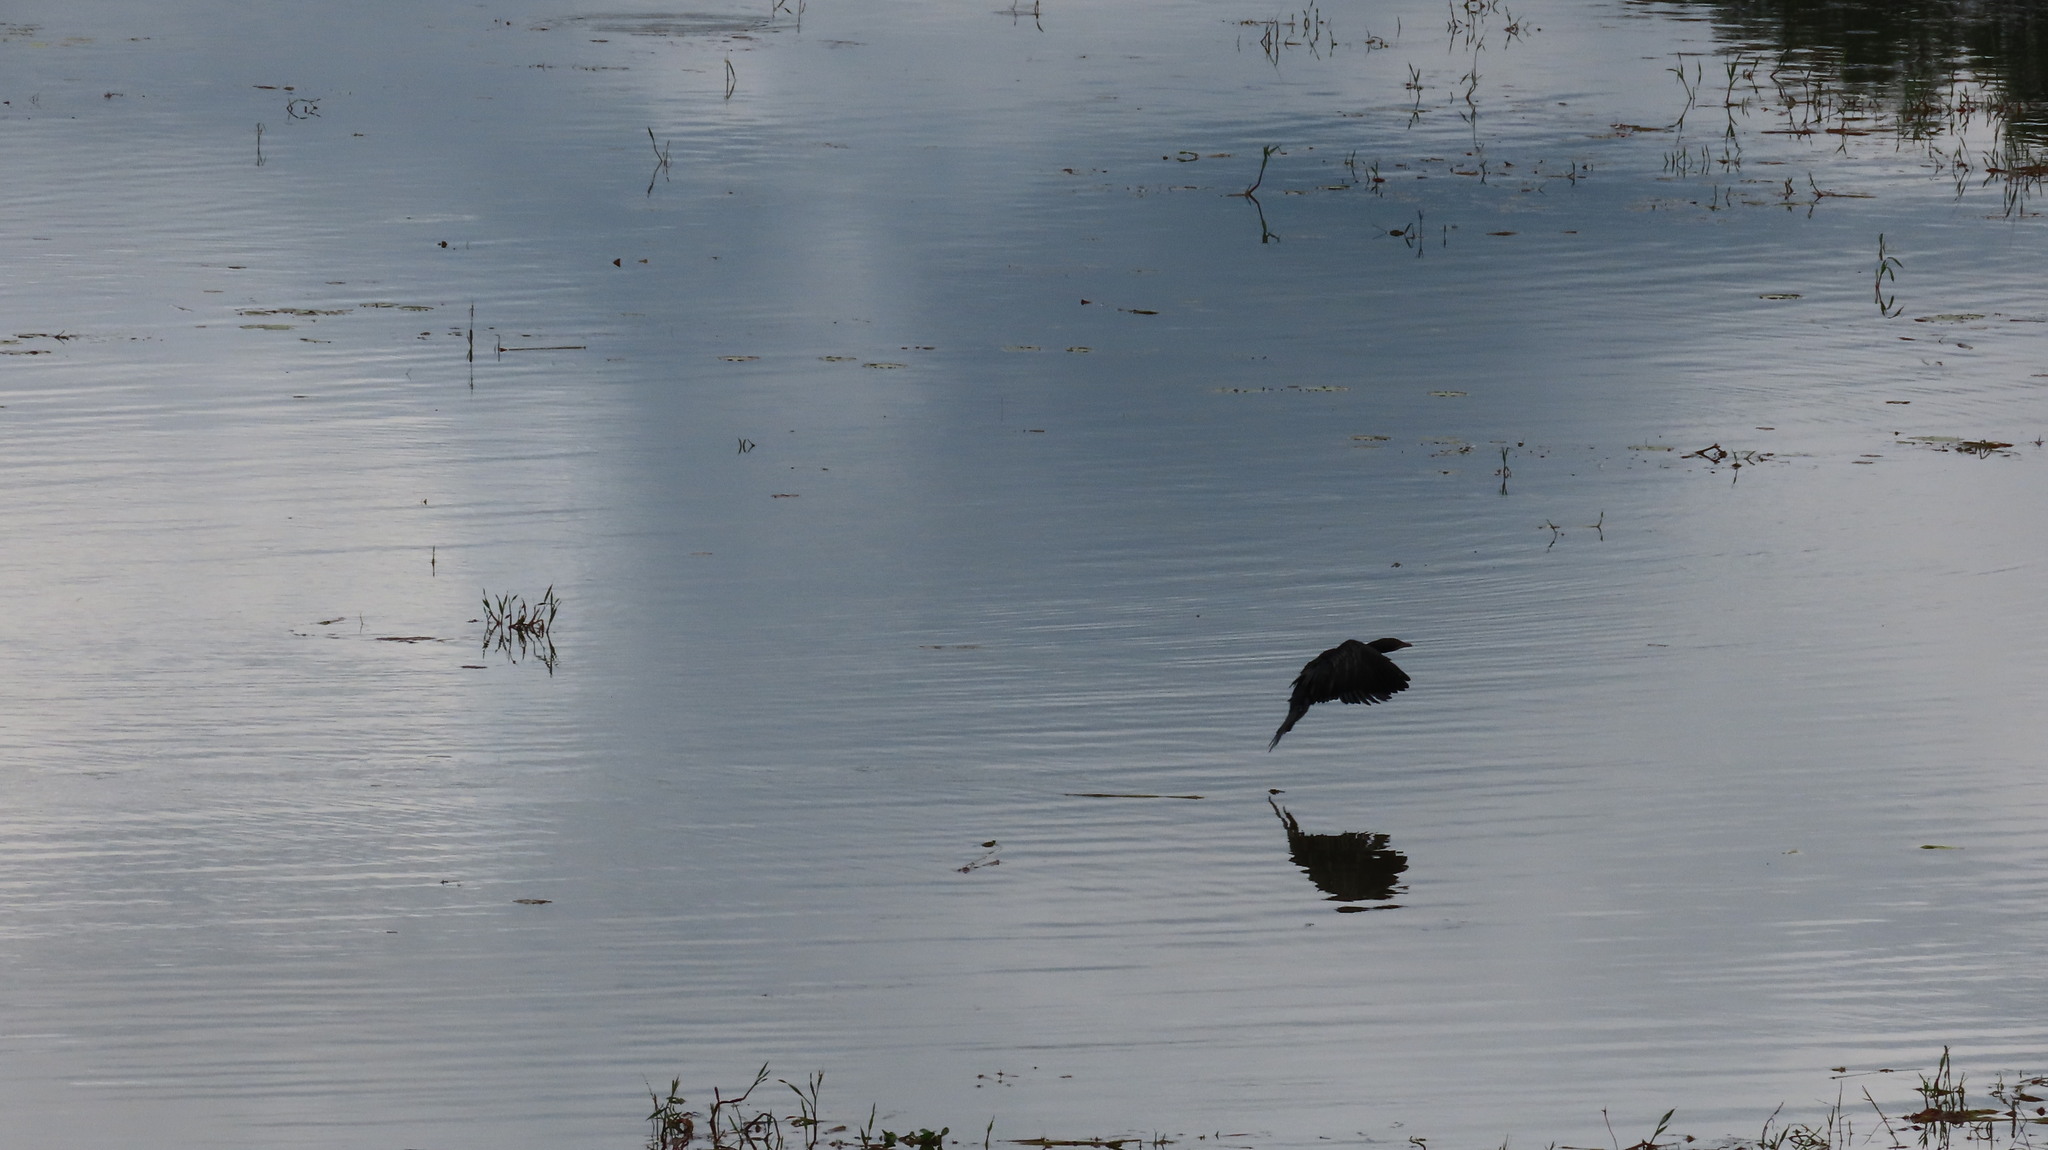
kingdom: Animalia
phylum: Chordata
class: Aves
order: Suliformes
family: Phalacrocoracidae
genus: Microcarbo
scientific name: Microcarbo niger
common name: Little cormorant
